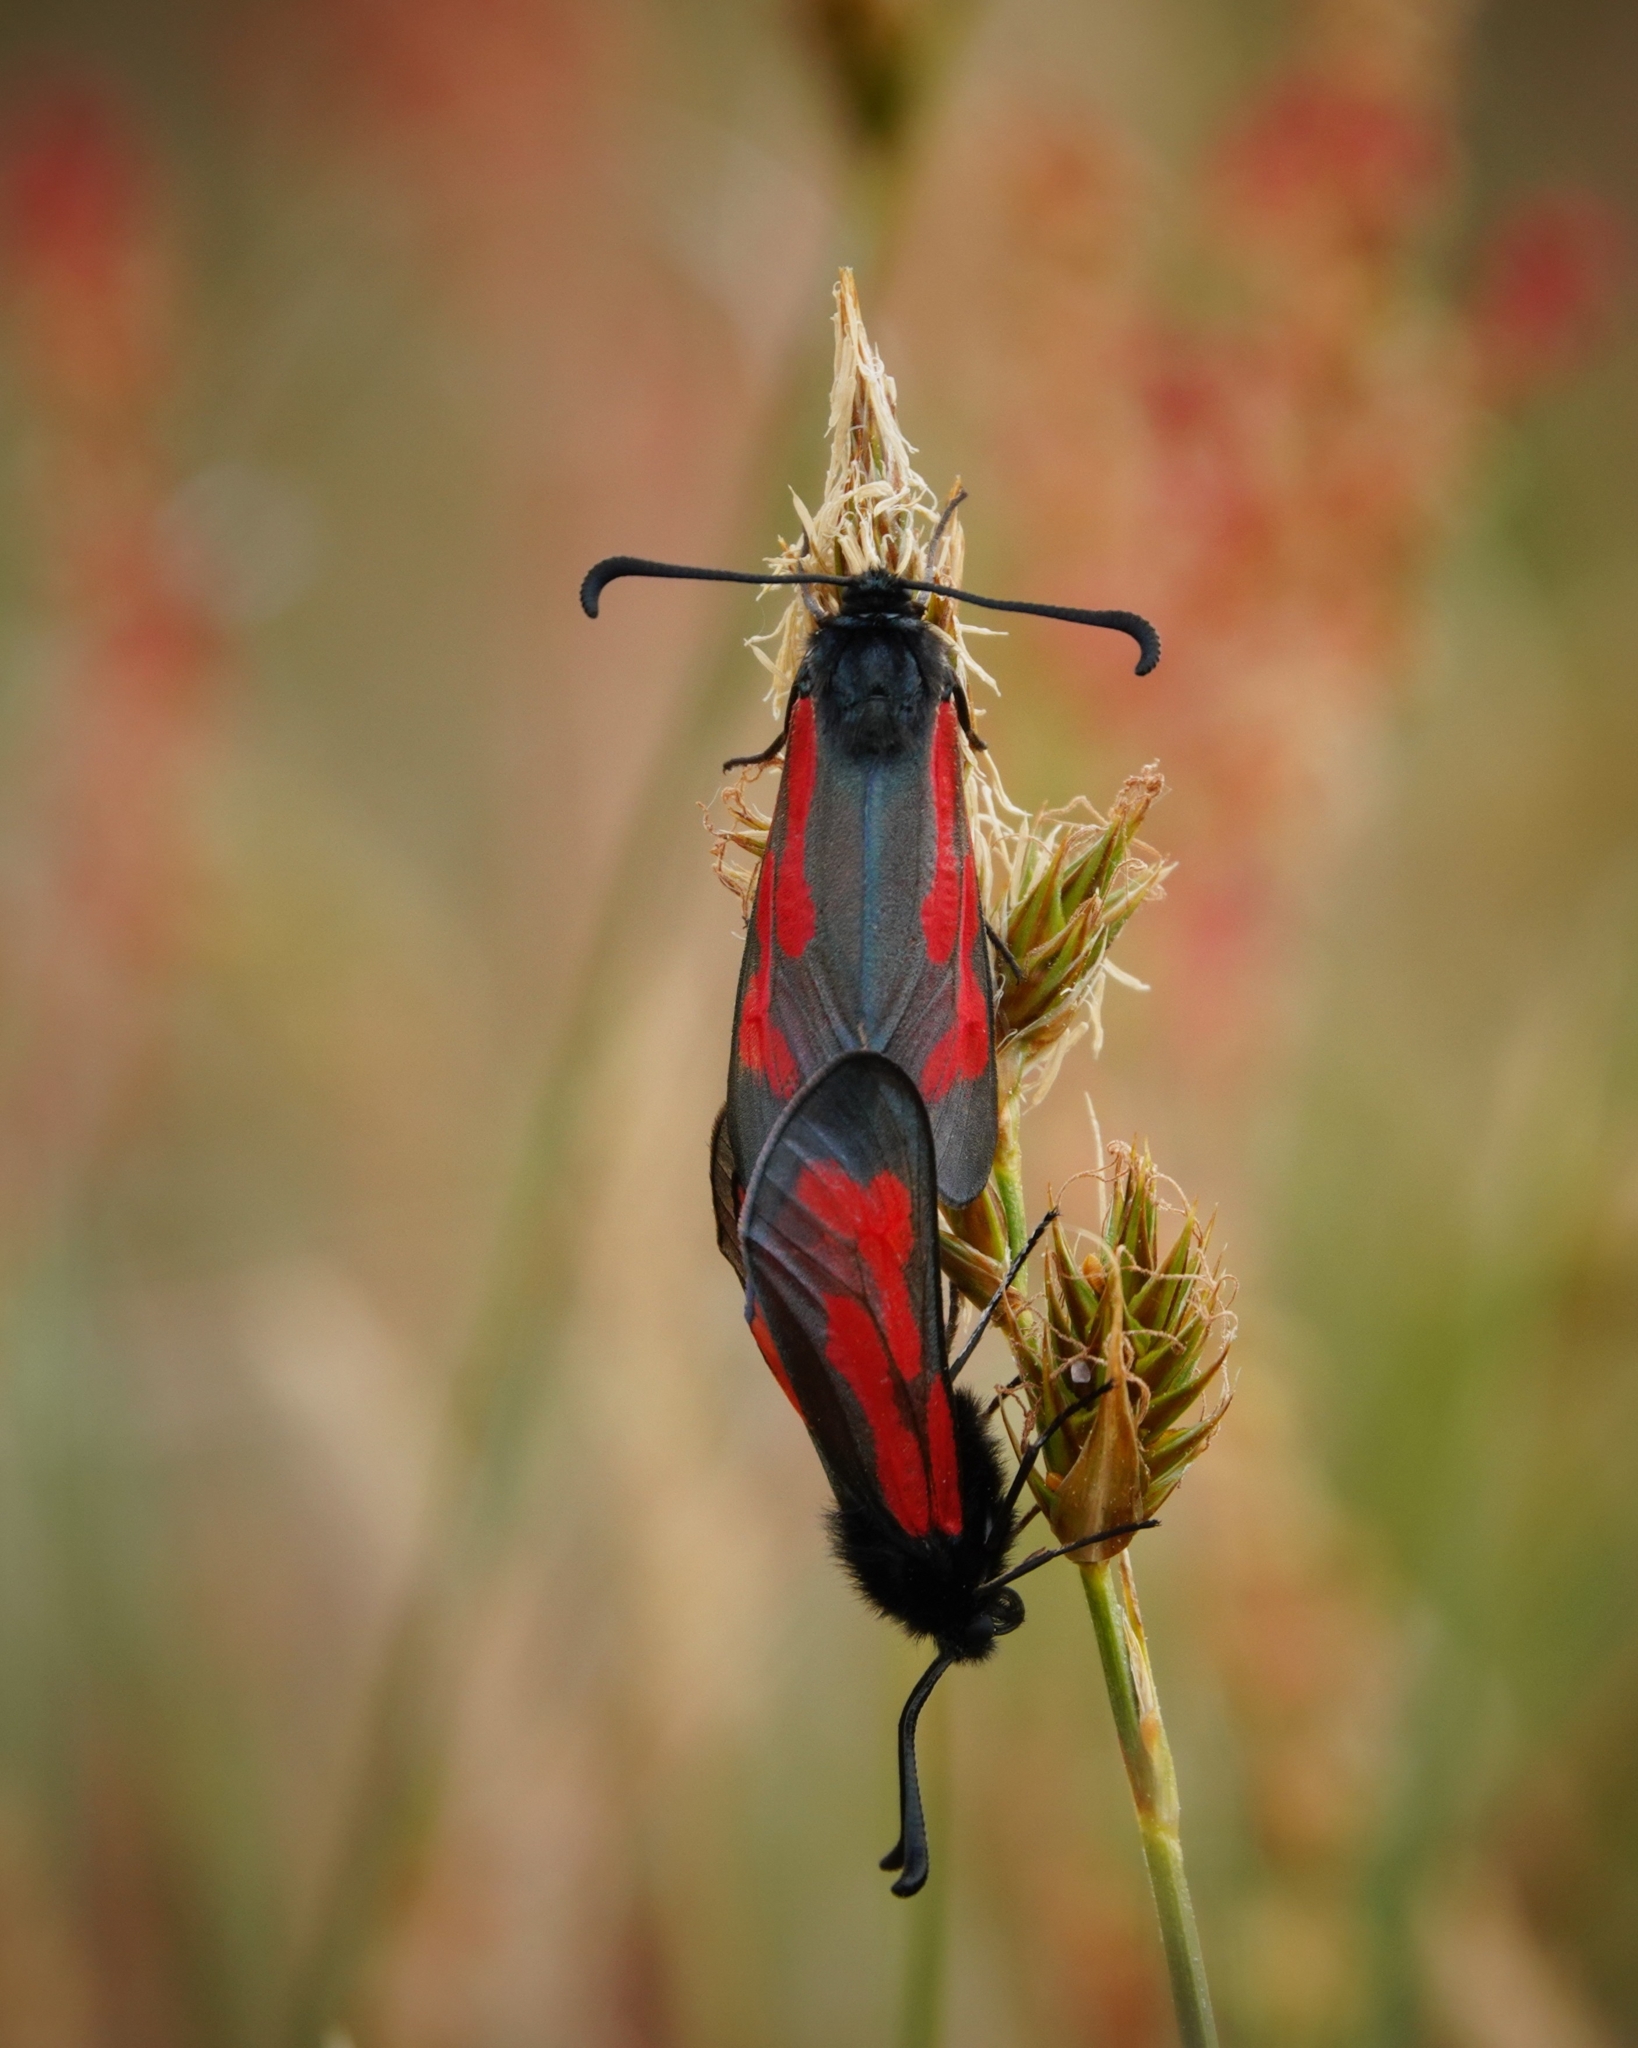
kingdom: Animalia
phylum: Arthropoda
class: Insecta
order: Lepidoptera
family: Zygaenidae
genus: Zygaena
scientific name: Zygaena minos
